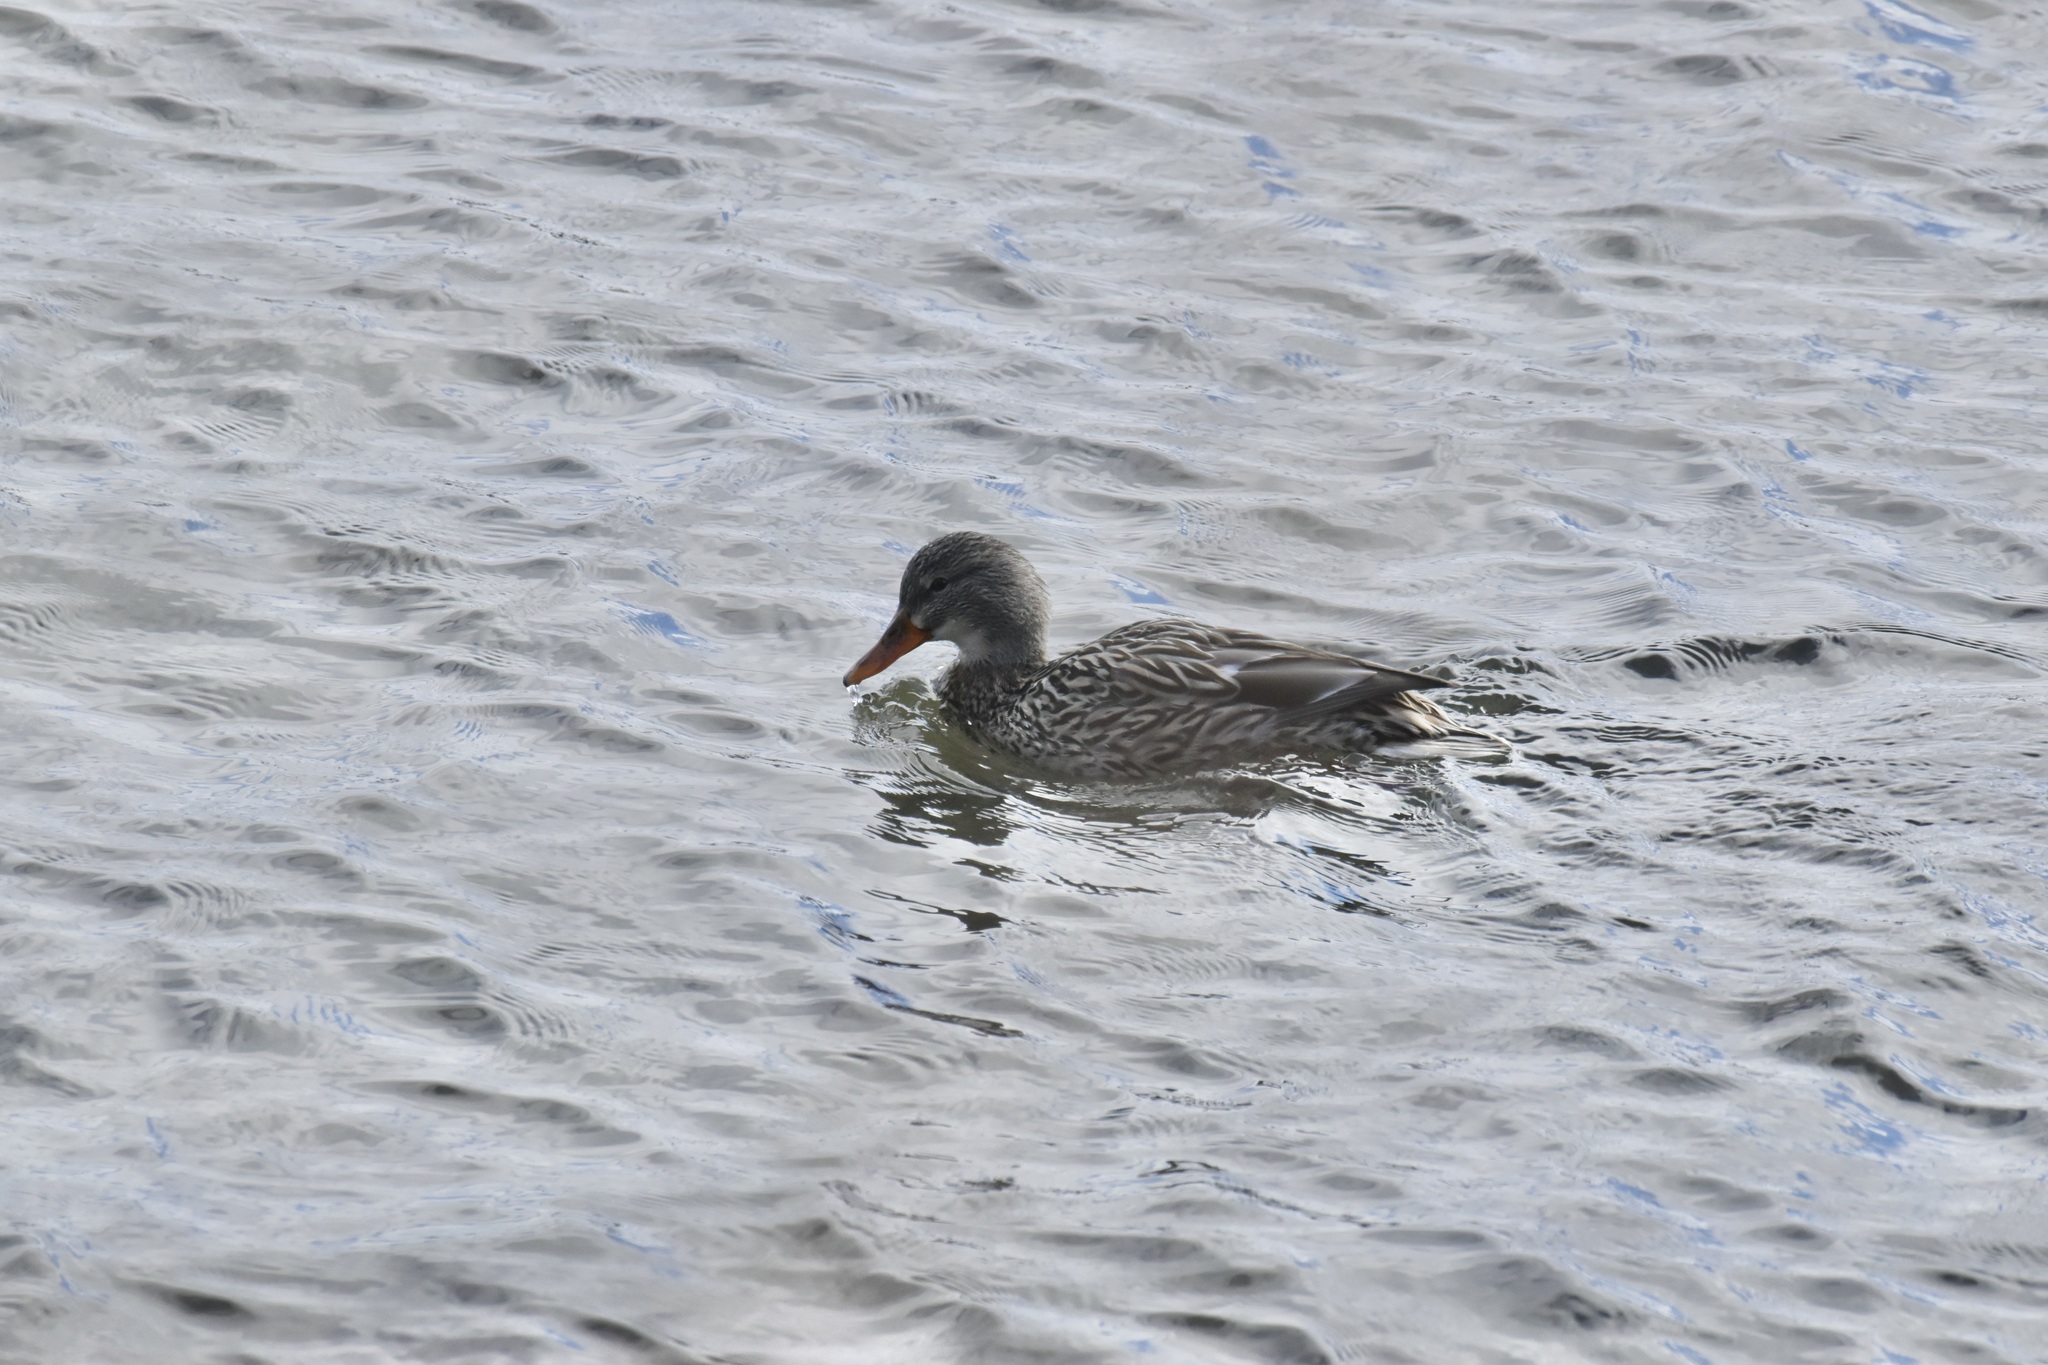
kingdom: Animalia
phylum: Chordata
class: Aves
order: Anseriformes
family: Anatidae
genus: Anas
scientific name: Anas platyrhynchos
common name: Mallard
